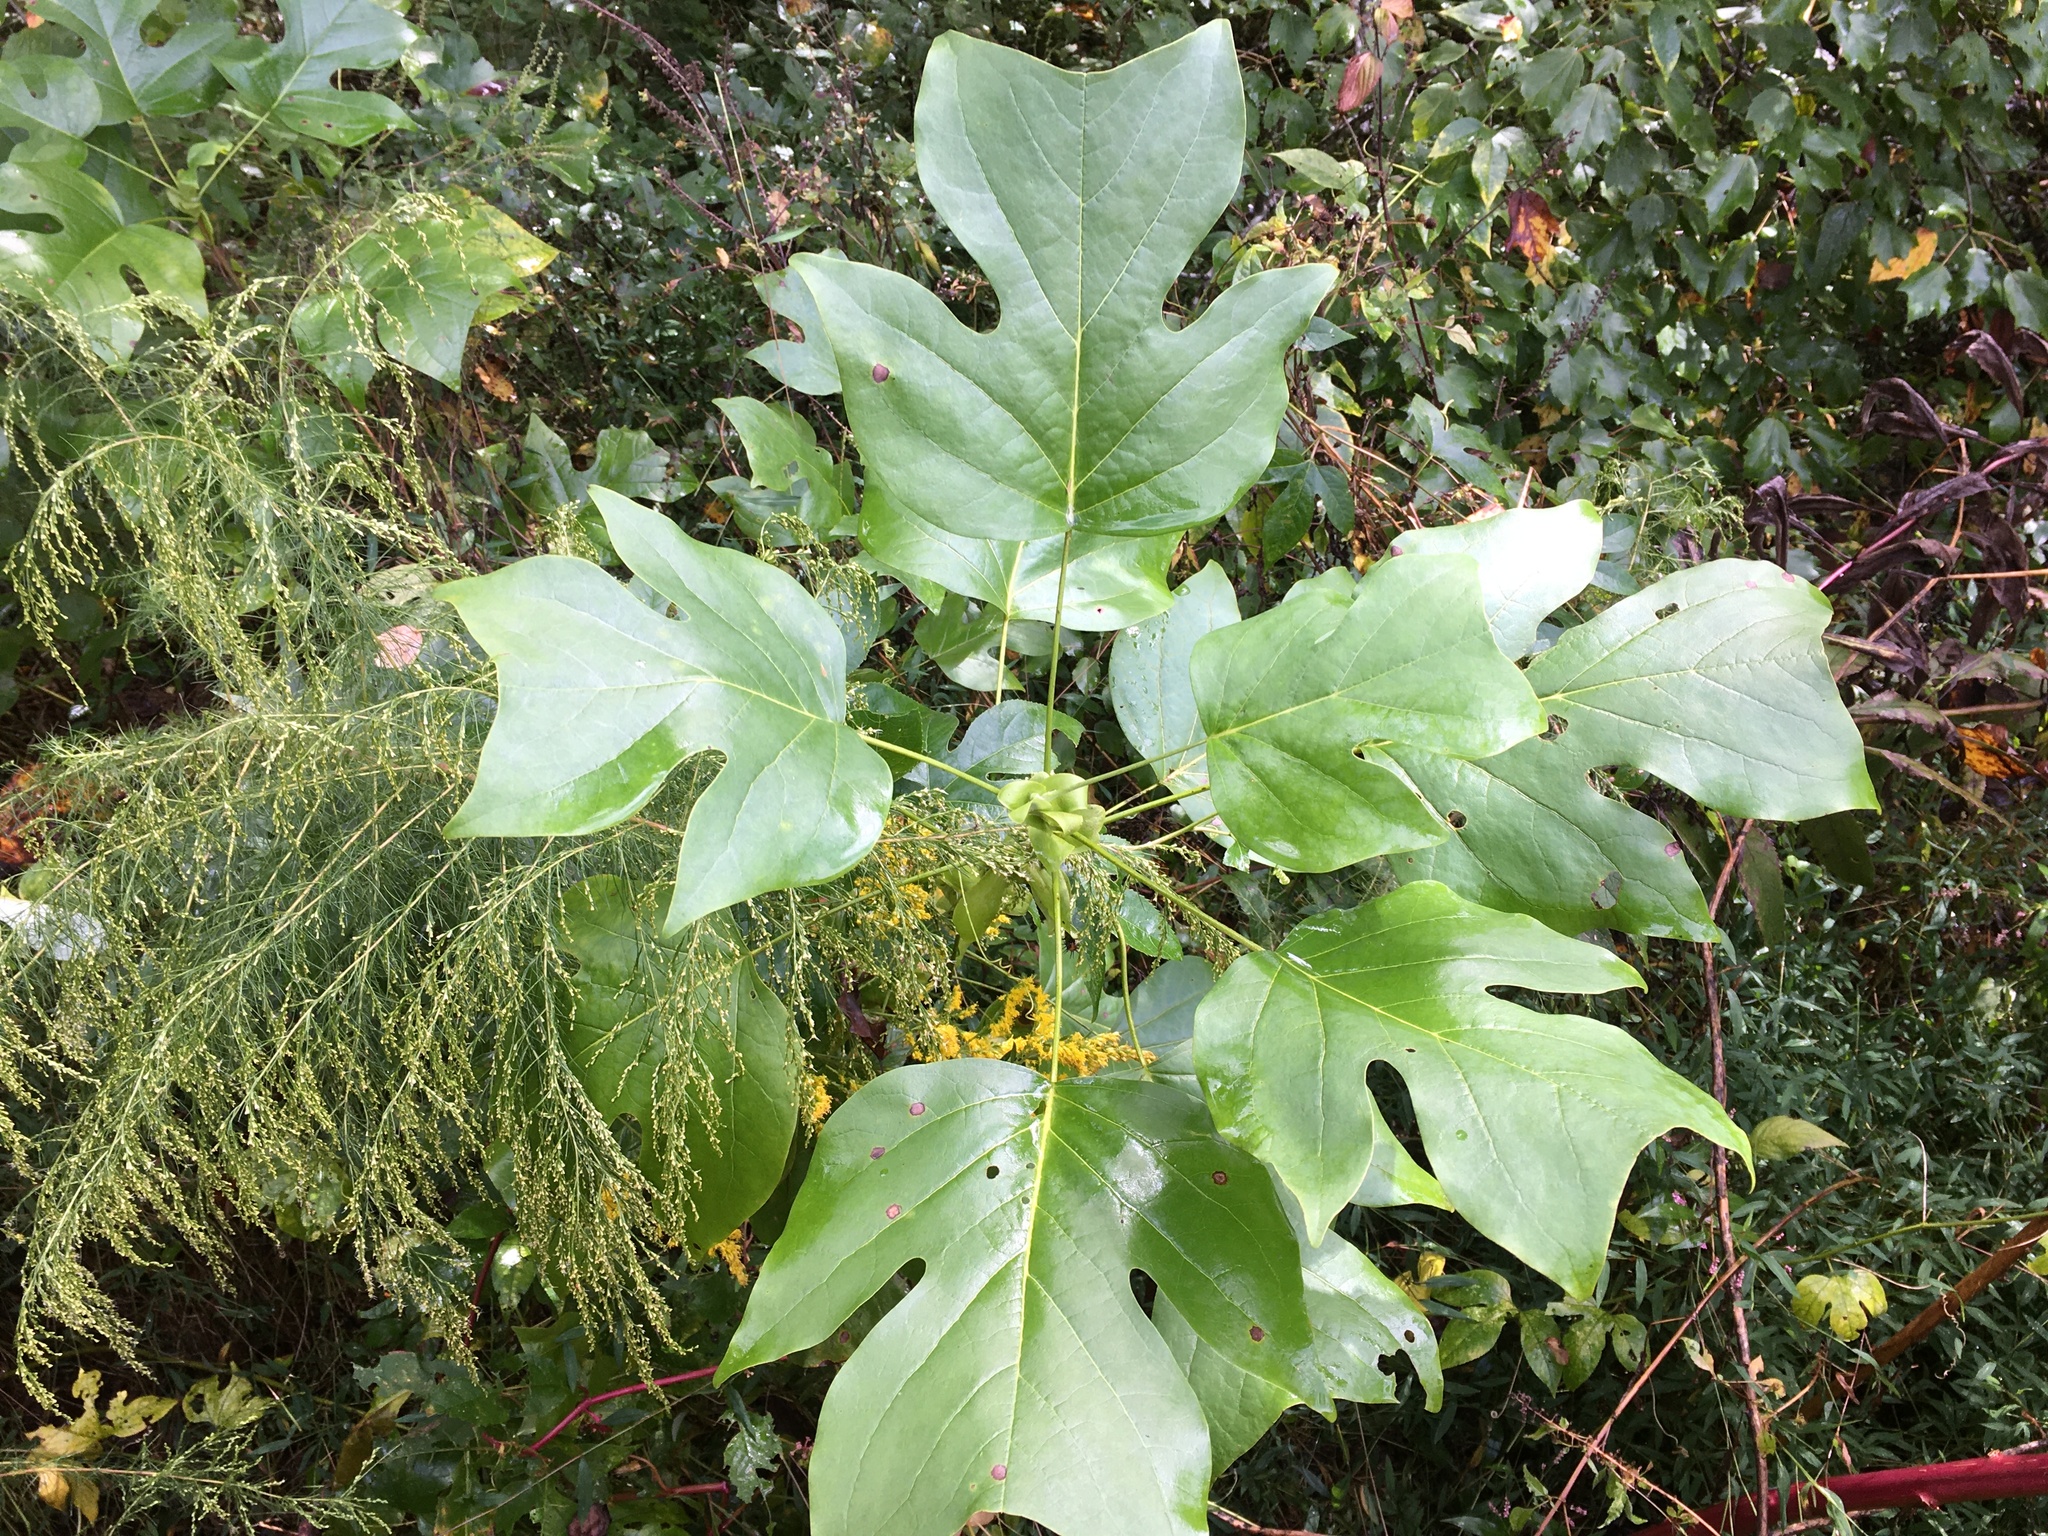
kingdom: Plantae
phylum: Tracheophyta
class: Magnoliopsida
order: Magnoliales
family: Magnoliaceae
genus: Liriodendron
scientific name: Liriodendron tulipifera
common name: Tulip tree
